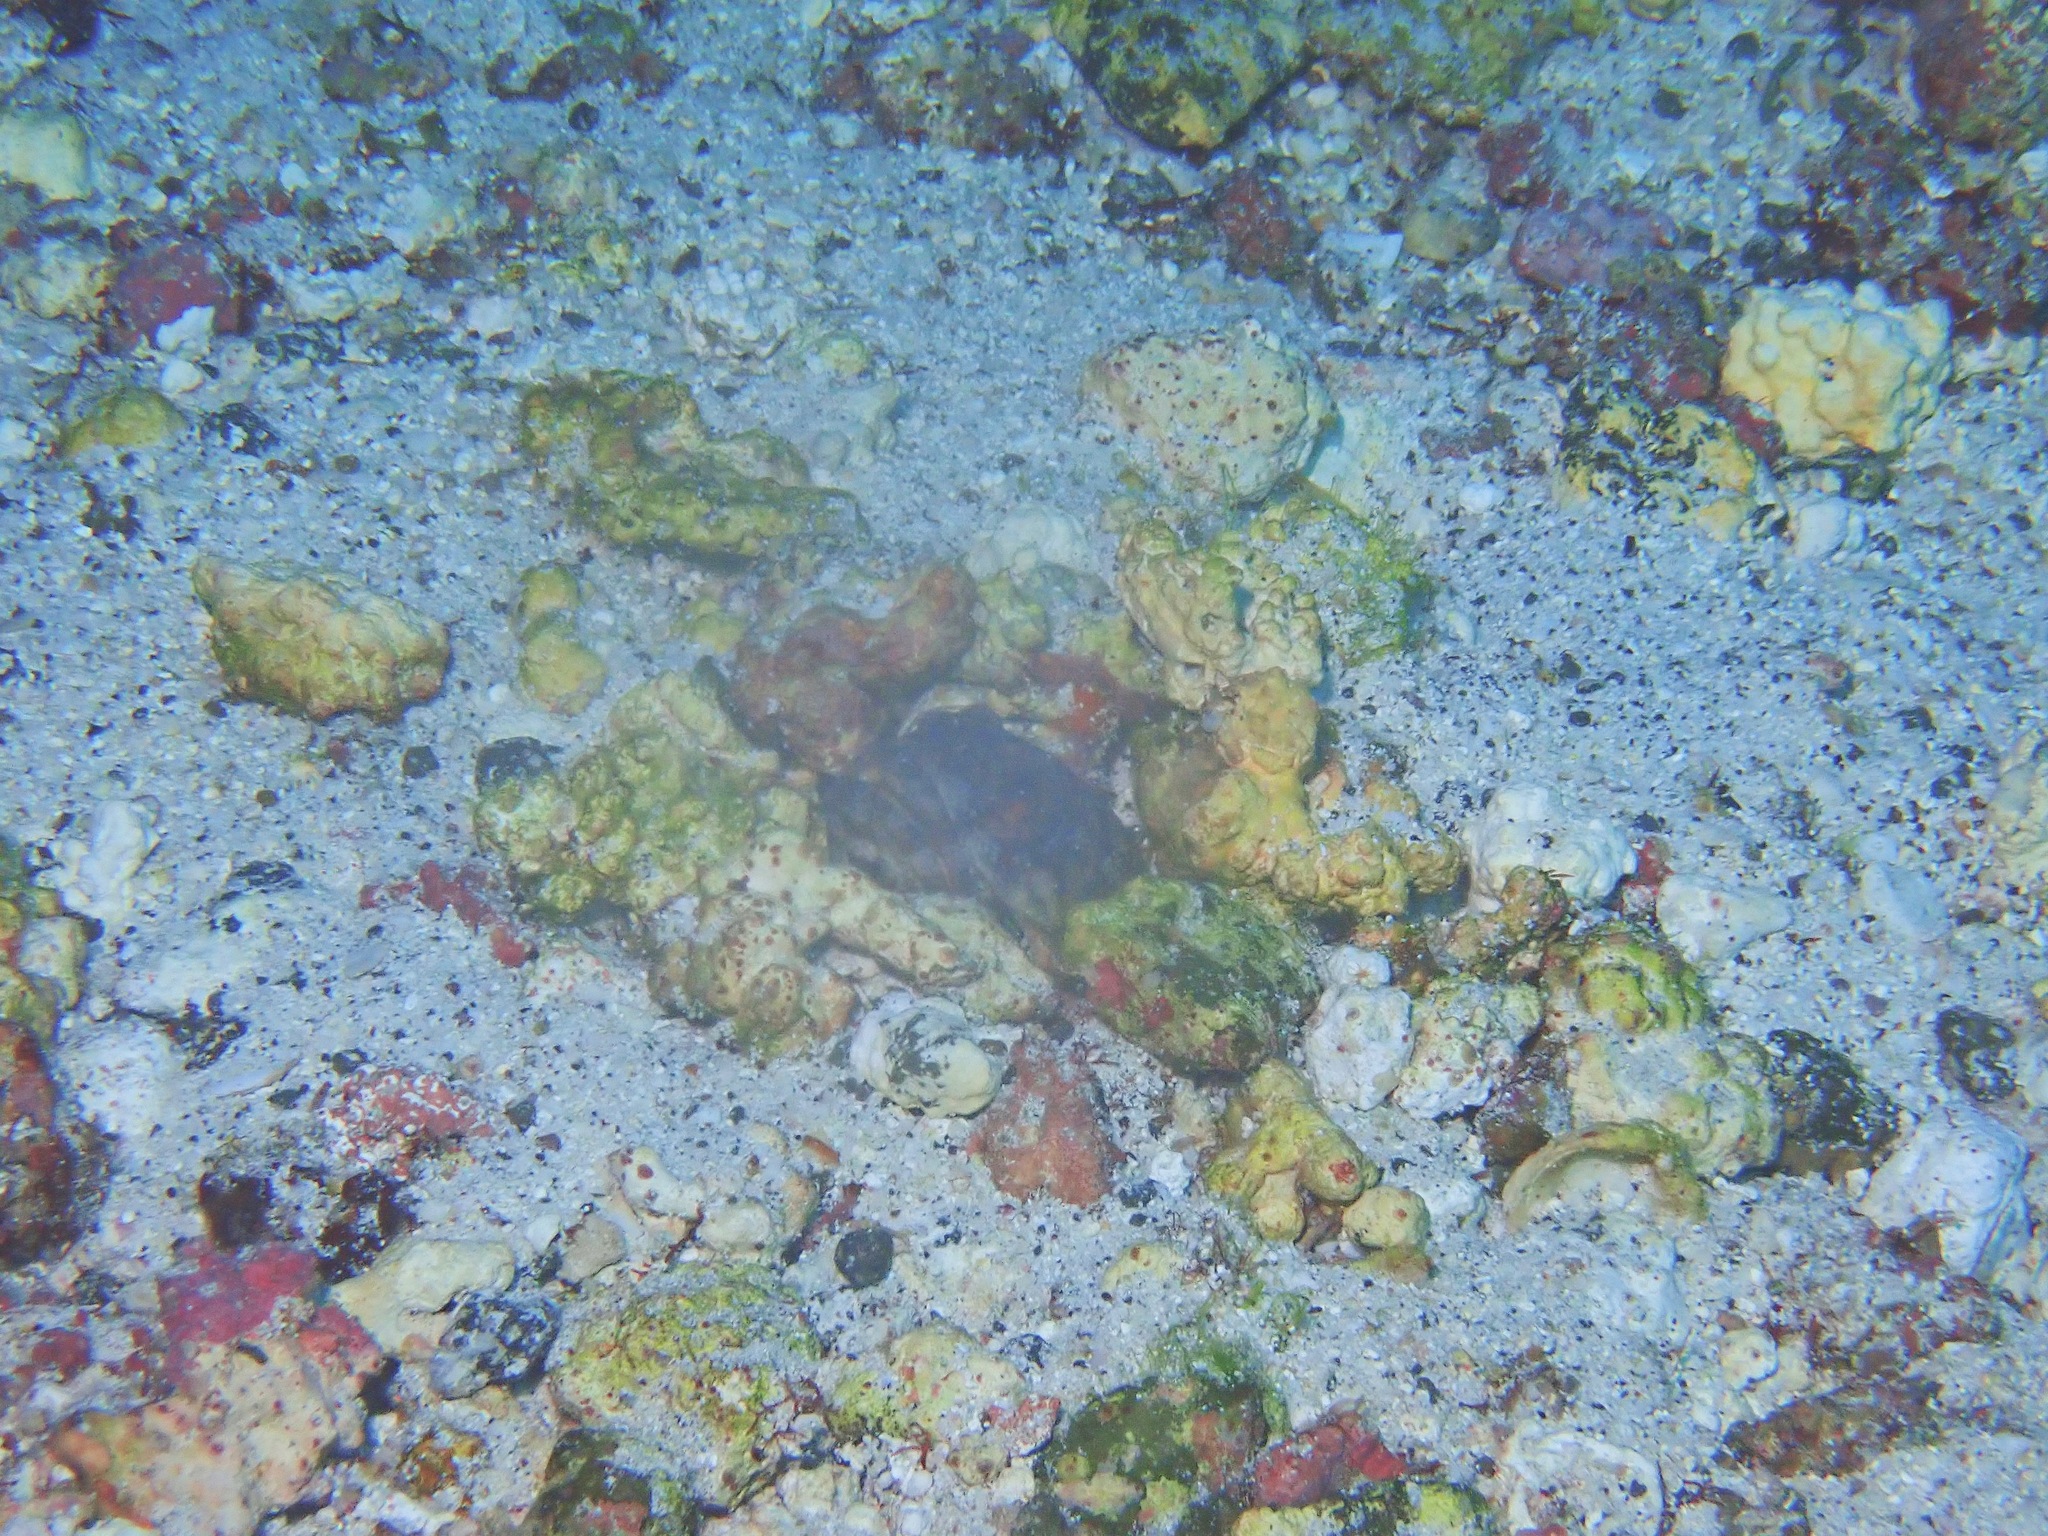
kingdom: Animalia
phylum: Chordata
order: Perciformes
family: Opistognathidae
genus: Opistognathus
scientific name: Opistognathus galapagensis
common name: Galapagos jawfish
